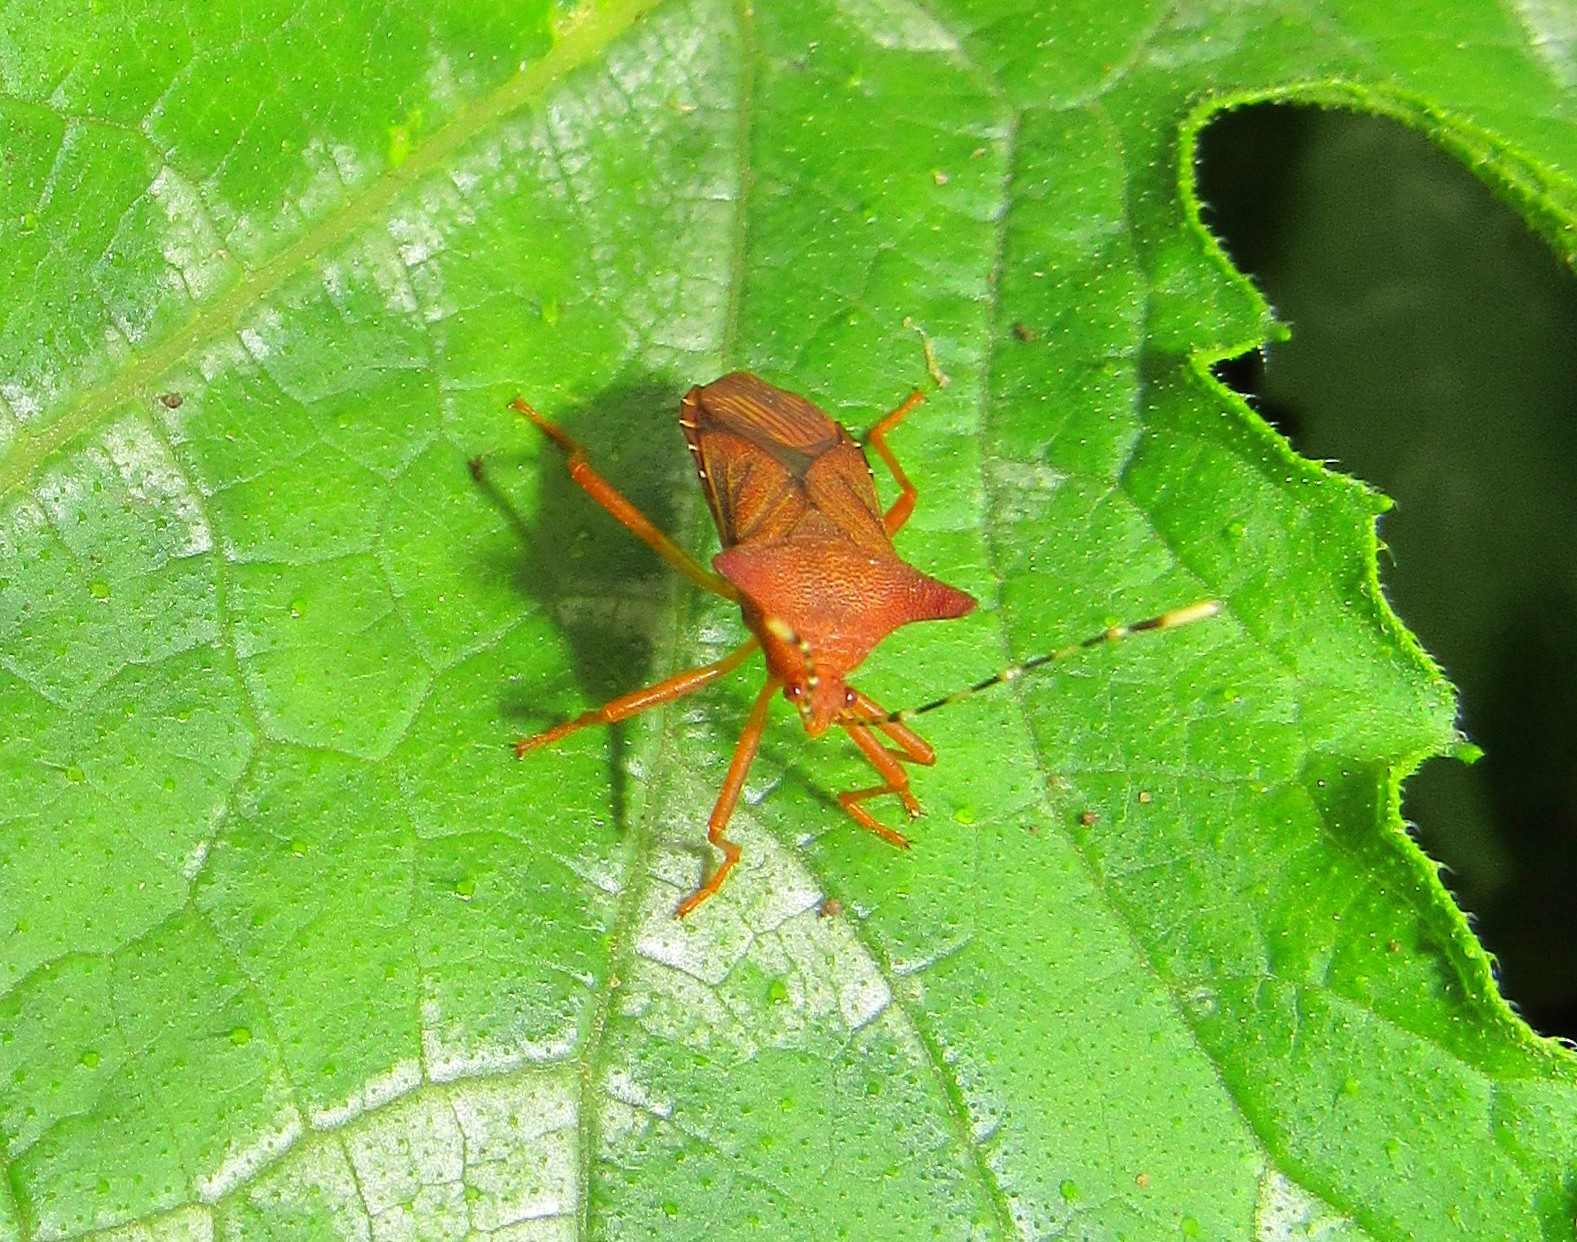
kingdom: Animalia
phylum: Arthropoda
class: Insecta
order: Hemiptera
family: Coreidae
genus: Anasa
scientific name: Anasa cornuta
